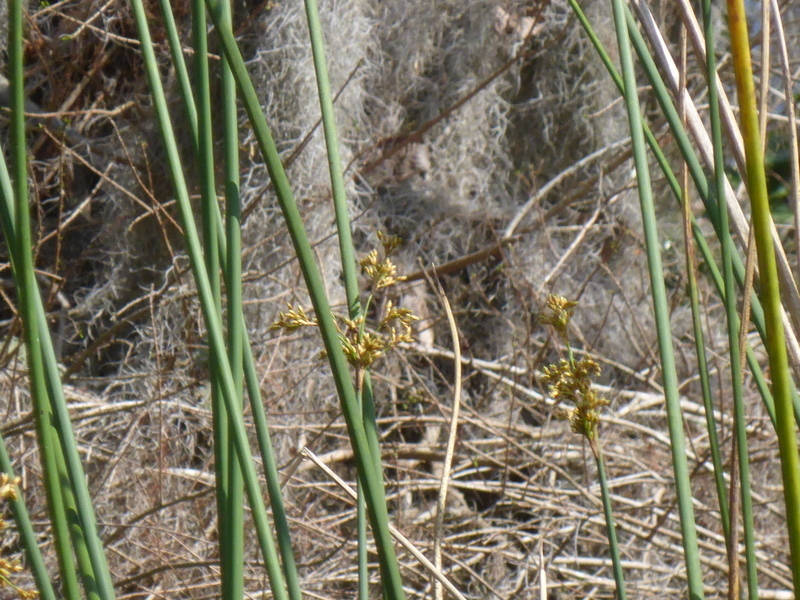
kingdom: Plantae
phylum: Tracheophyta
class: Liliopsida
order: Poales
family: Cyperaceae
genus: Schoenoplectus
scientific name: Schoenoplectus californicus
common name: California bulrush
